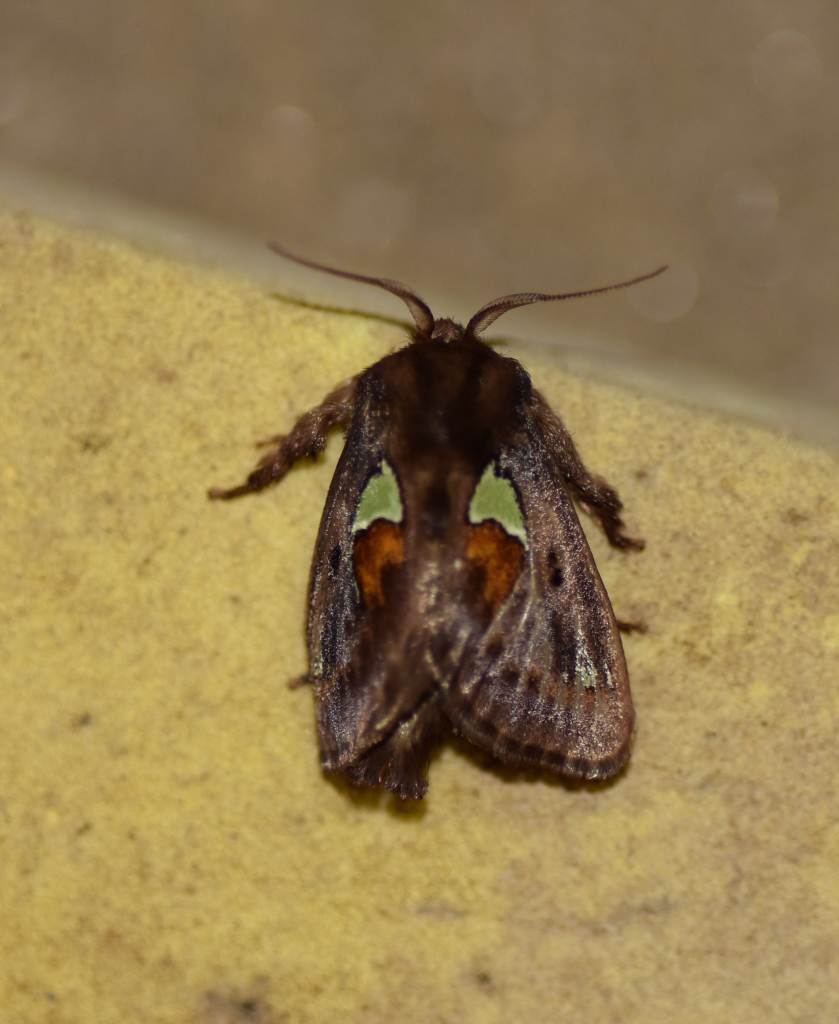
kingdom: Animalia
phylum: Arthropoda
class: Insecta
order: Lepidoptera
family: Limacodidae
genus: Euclea
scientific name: Euclea delphinii
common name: Spiny oak-slug moth
